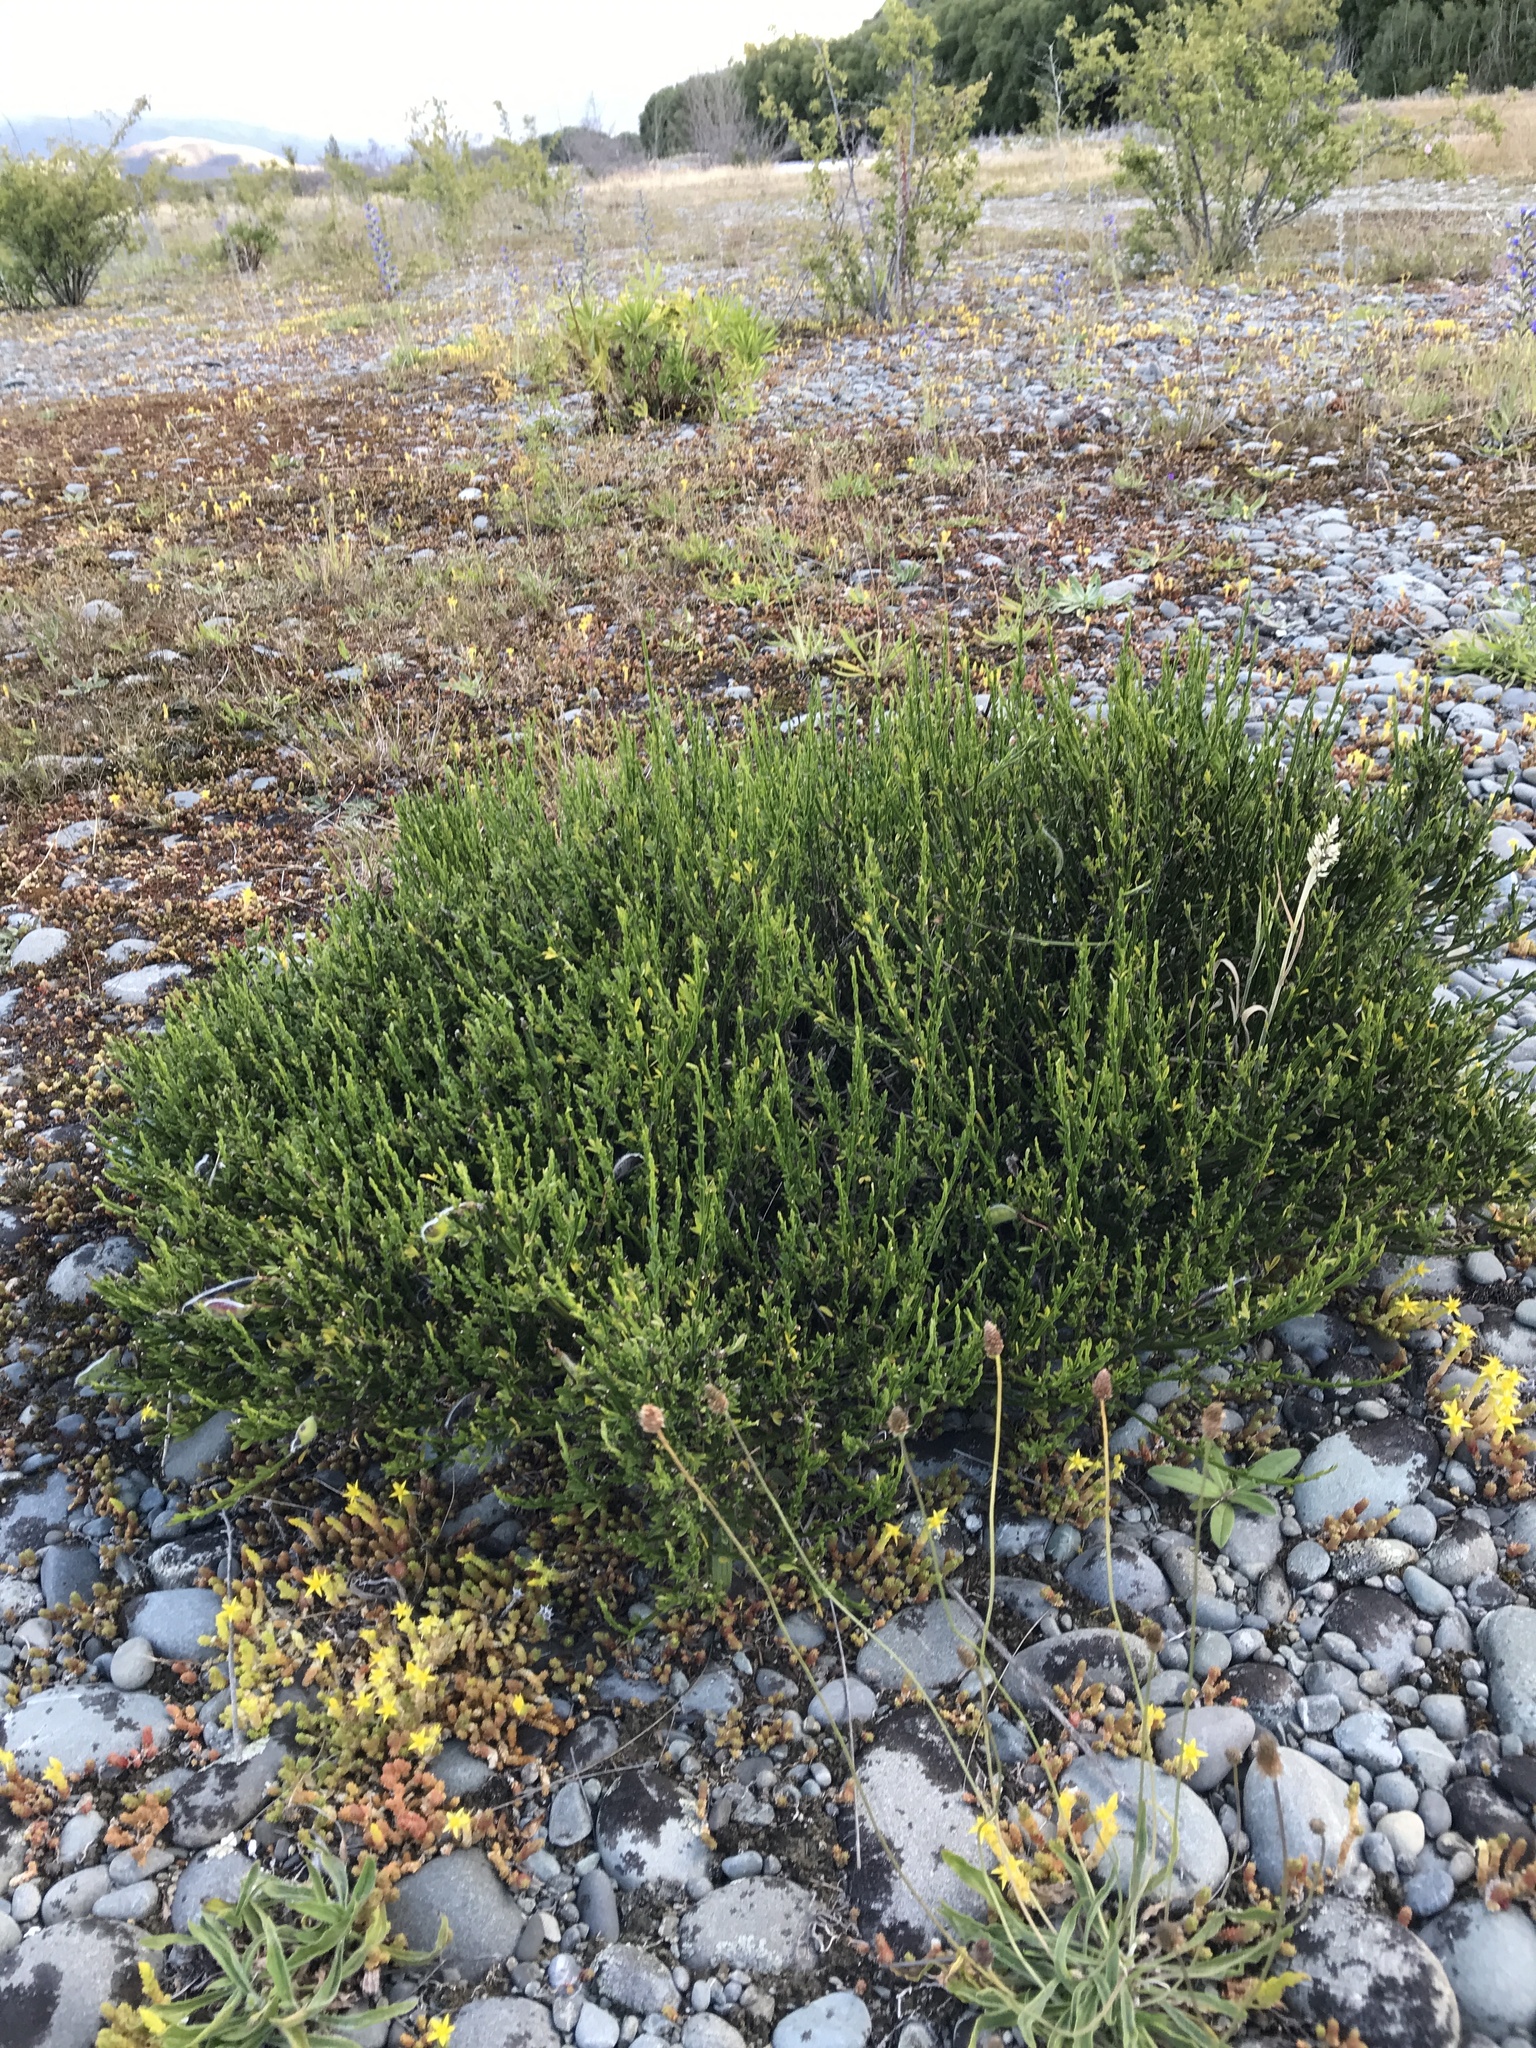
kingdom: Plantae
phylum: Tracheophyta
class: Magnoliopsida
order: Fabales
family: Fabaceae
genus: Cytisus
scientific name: Cytisus scoparius
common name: Scotch broom
